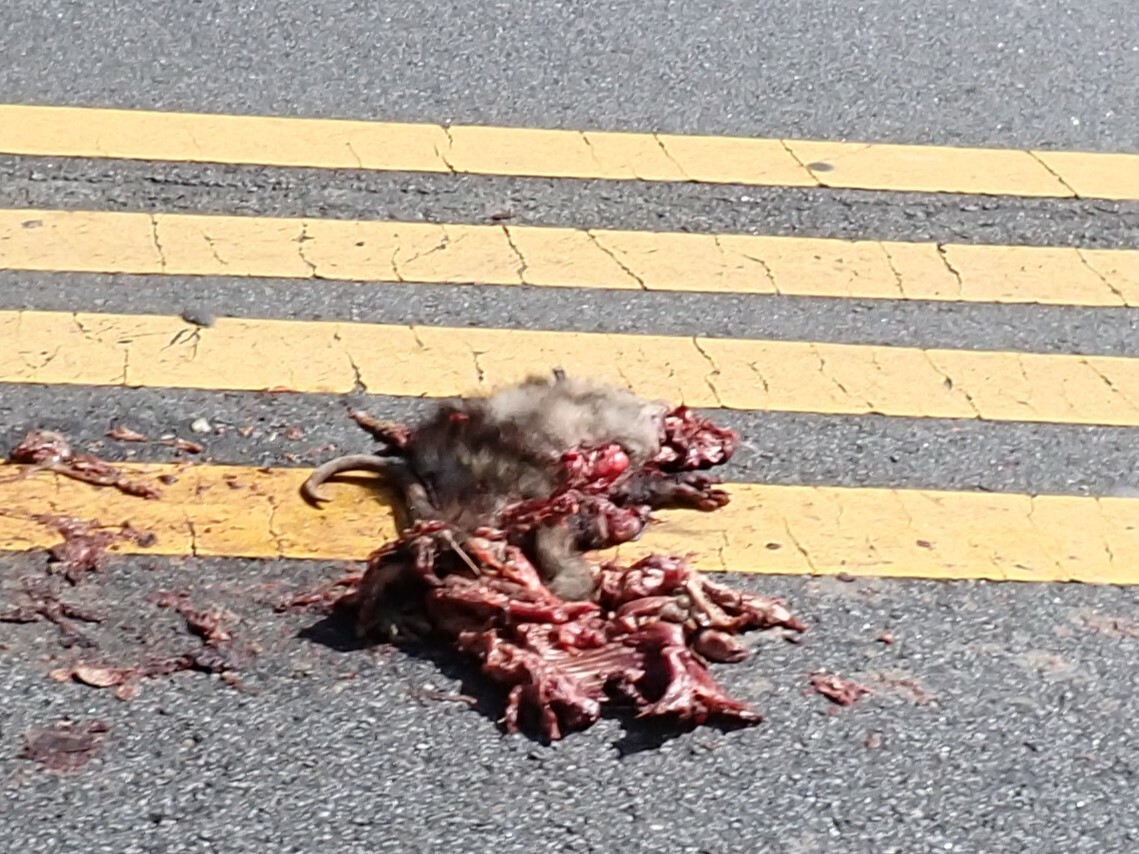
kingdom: Animalia
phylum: Chordata
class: Mammalia
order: Didelphimorphia
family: Didelphidae
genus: Didelphis
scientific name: Didelphis virginiana
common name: Virginia opossum
